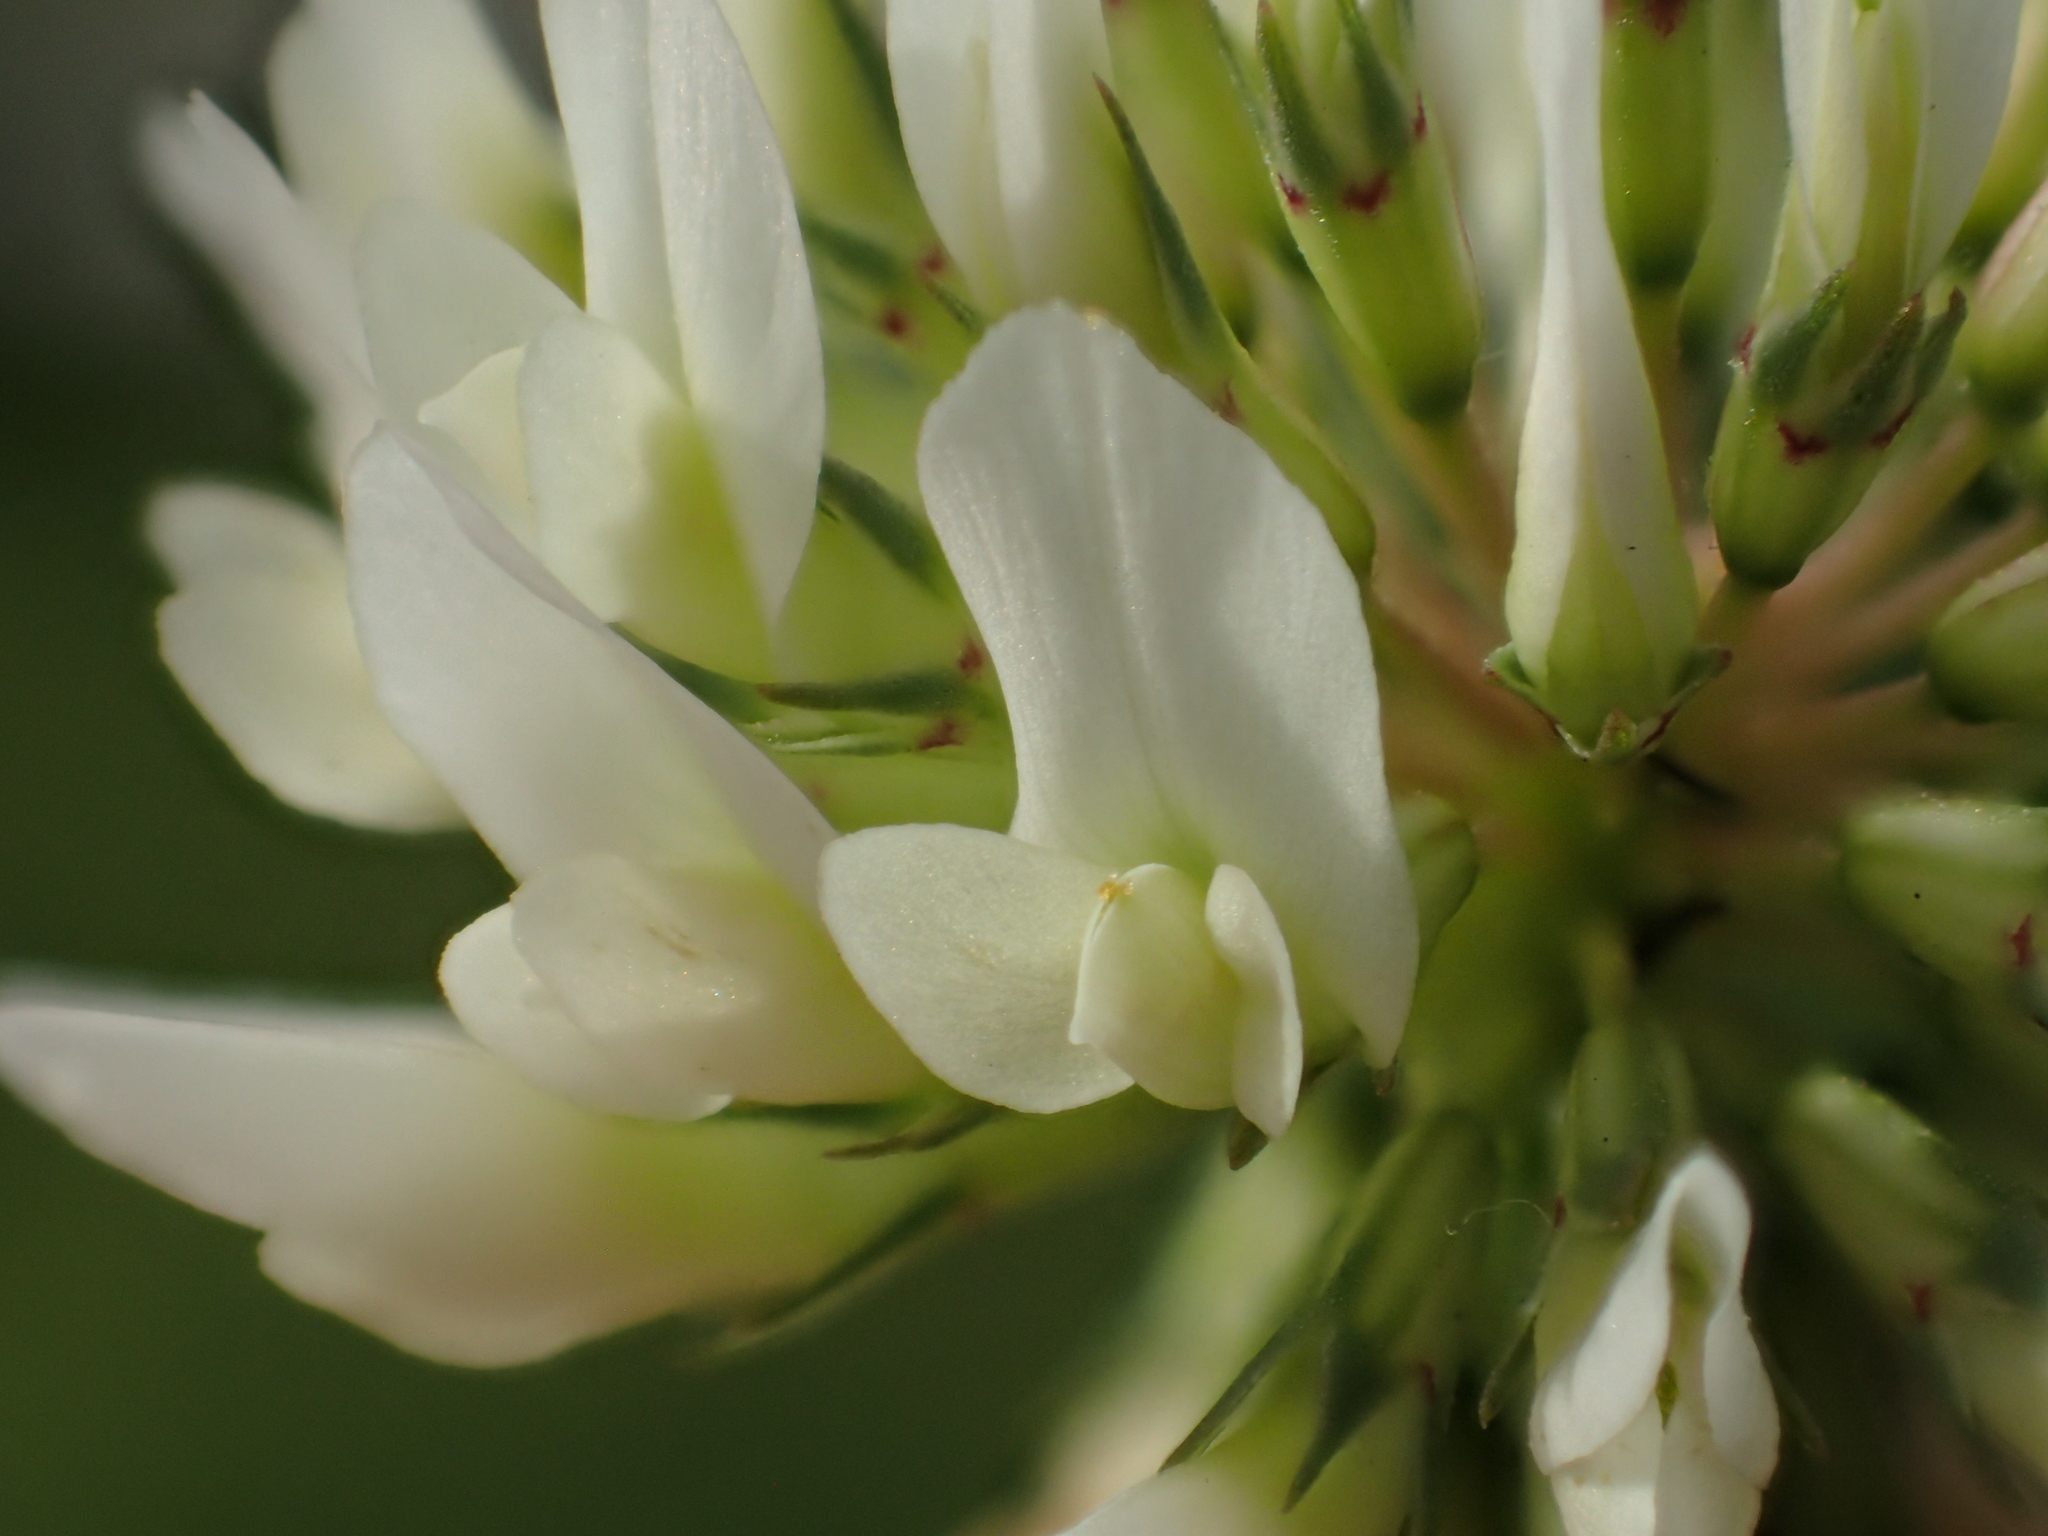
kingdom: Plantae
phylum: Tracheophyta
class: Magnoliopsida
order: Fabales
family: Fabaceae
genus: Trifolium
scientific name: Trifolium repens
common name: White clover
